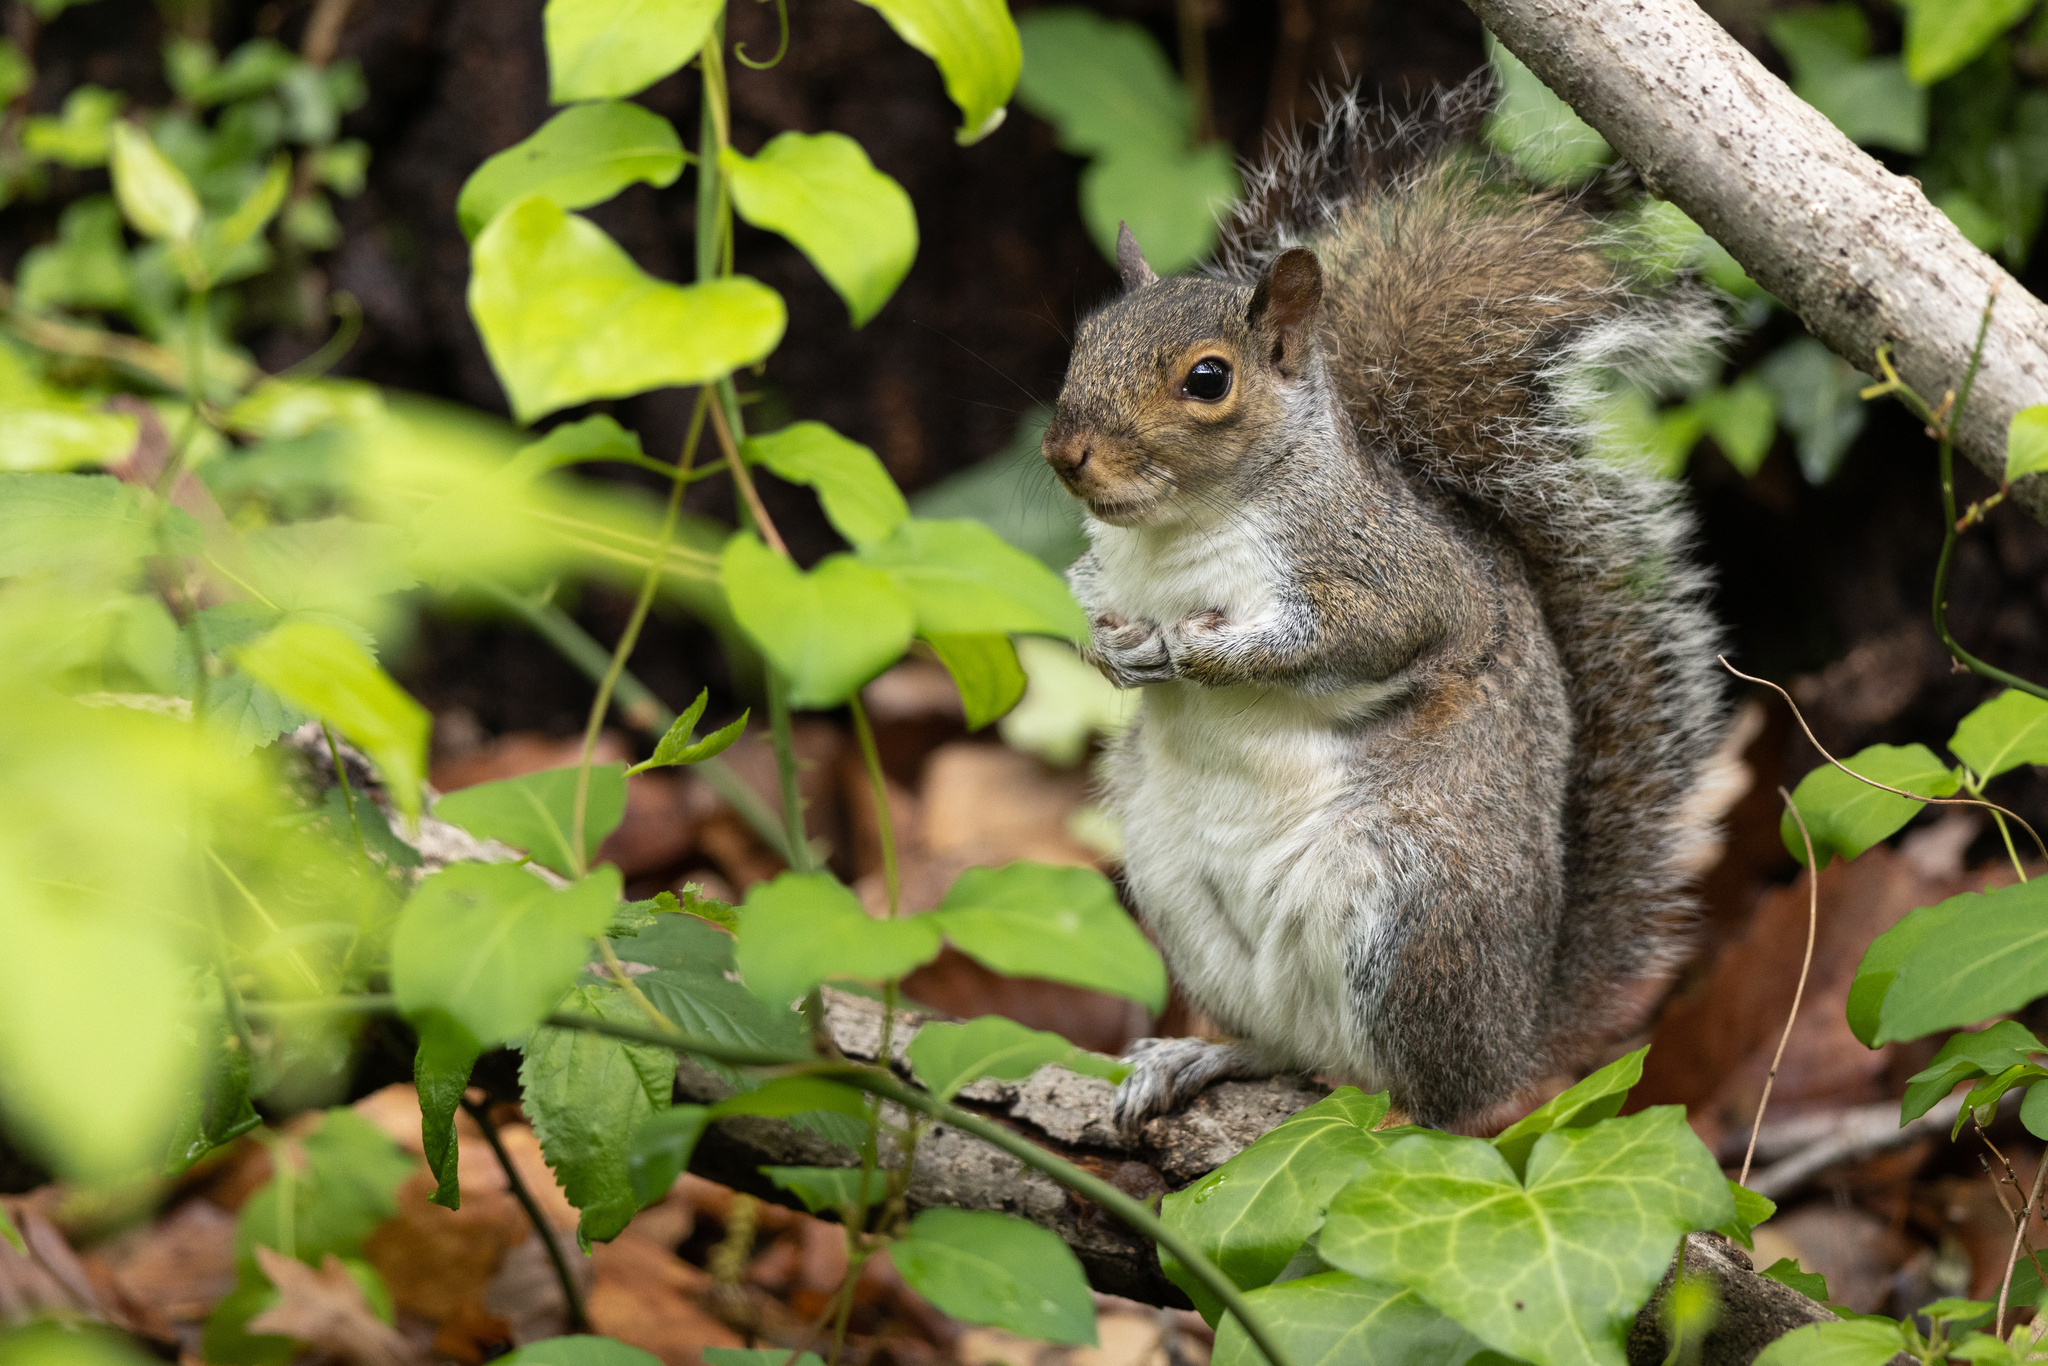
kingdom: Animalia
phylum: Chordata
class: Mammalia
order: Rodentia
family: Sciuridae
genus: Sciurus
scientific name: Sciurus carolinensis
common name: Eastern gray squirrel
